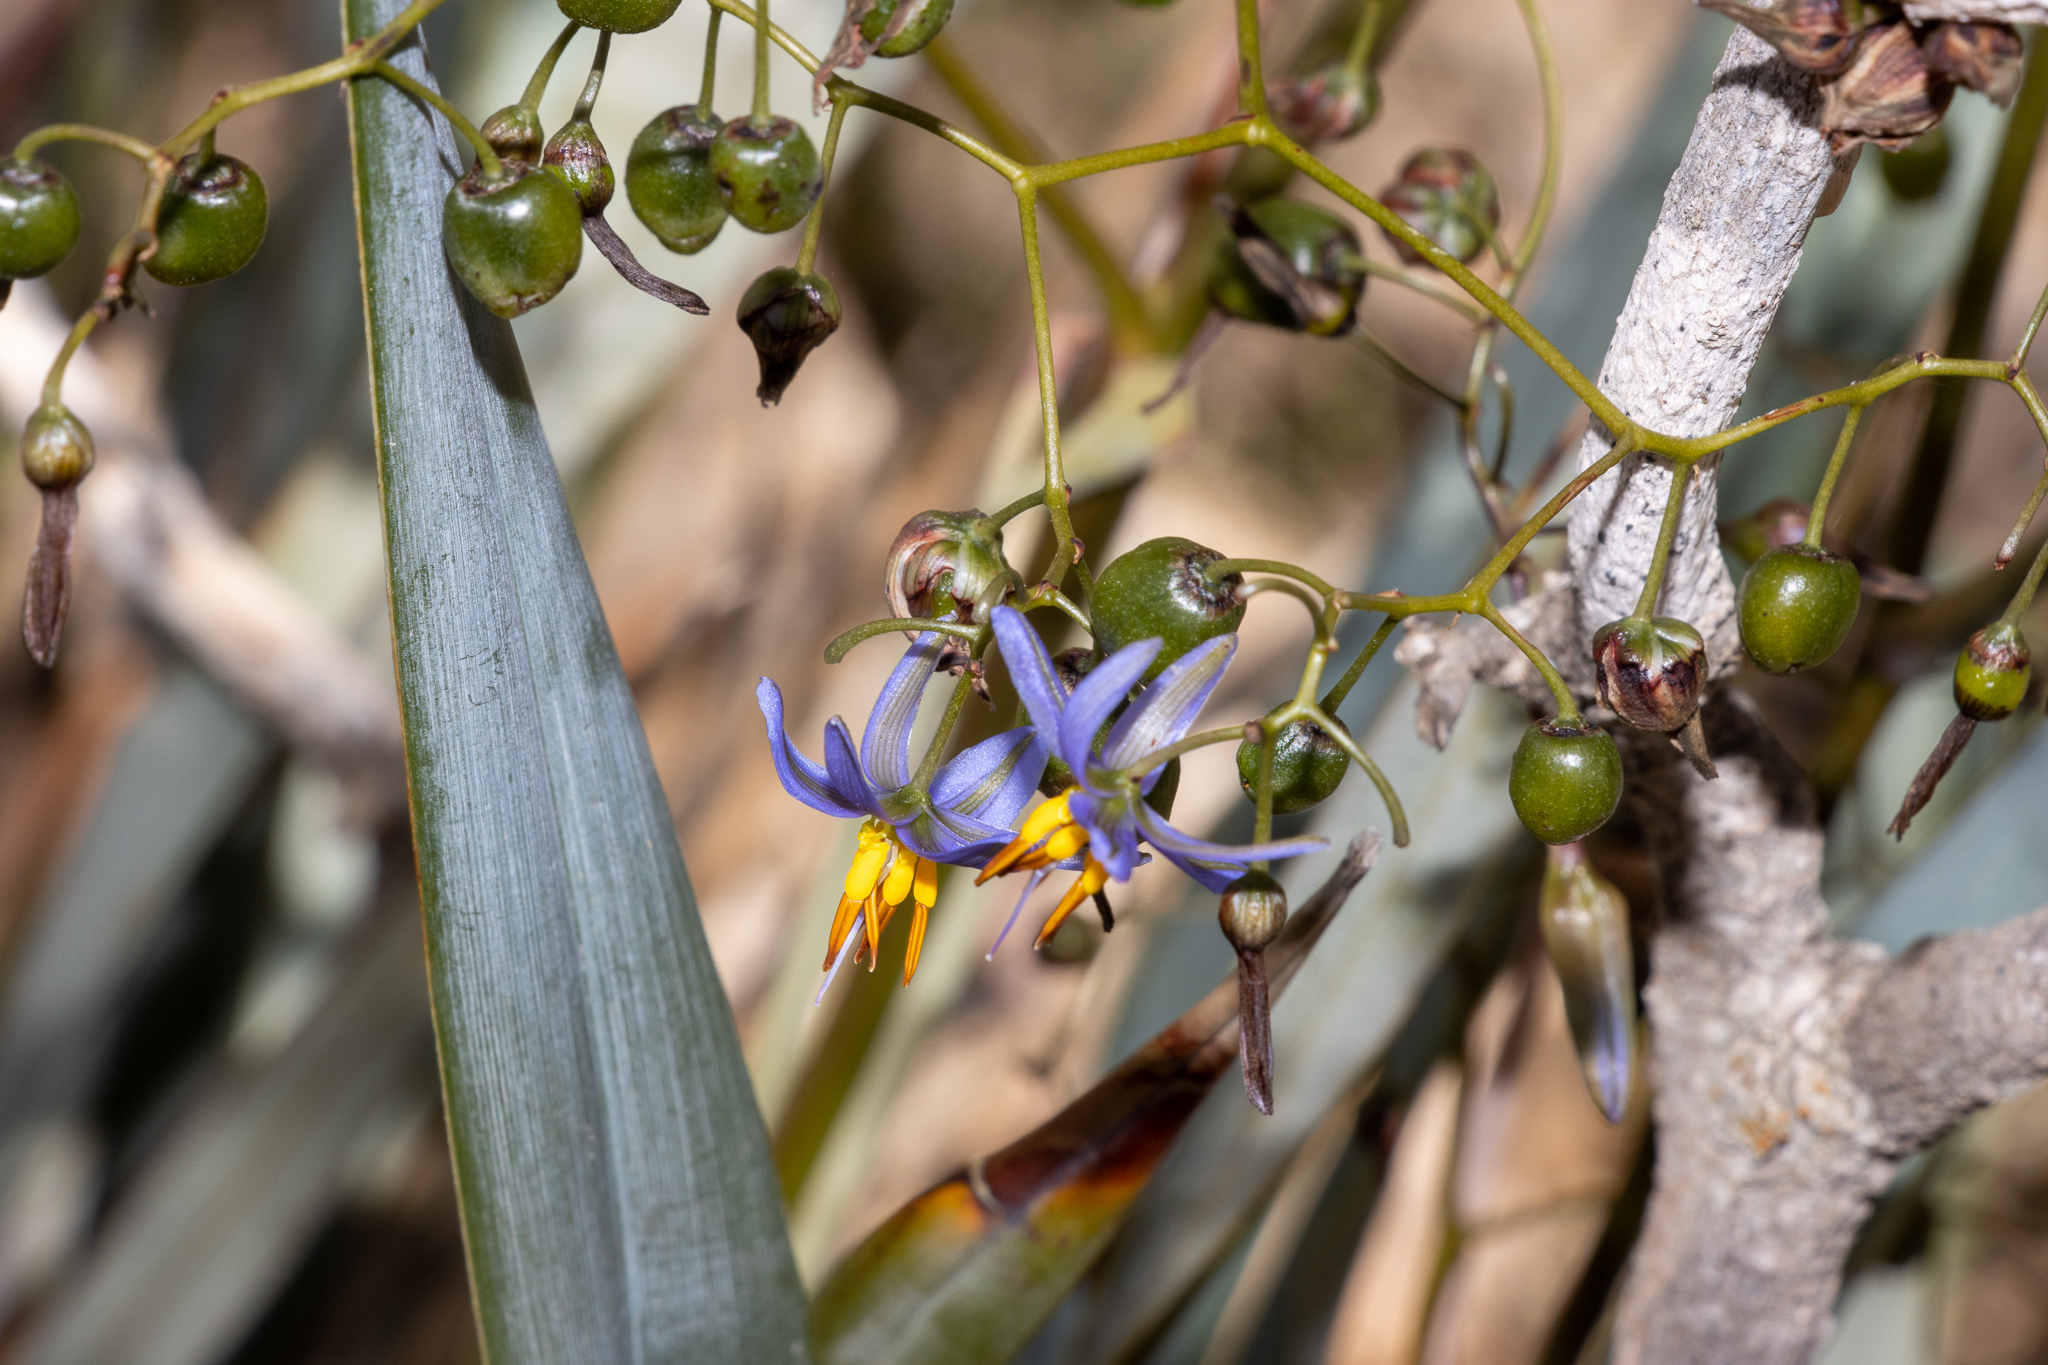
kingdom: Plantae
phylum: Tracheophyta
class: Liliopsida
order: Asparagales
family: Asphodelaceae
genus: Dianella
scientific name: Dianella revoluta
